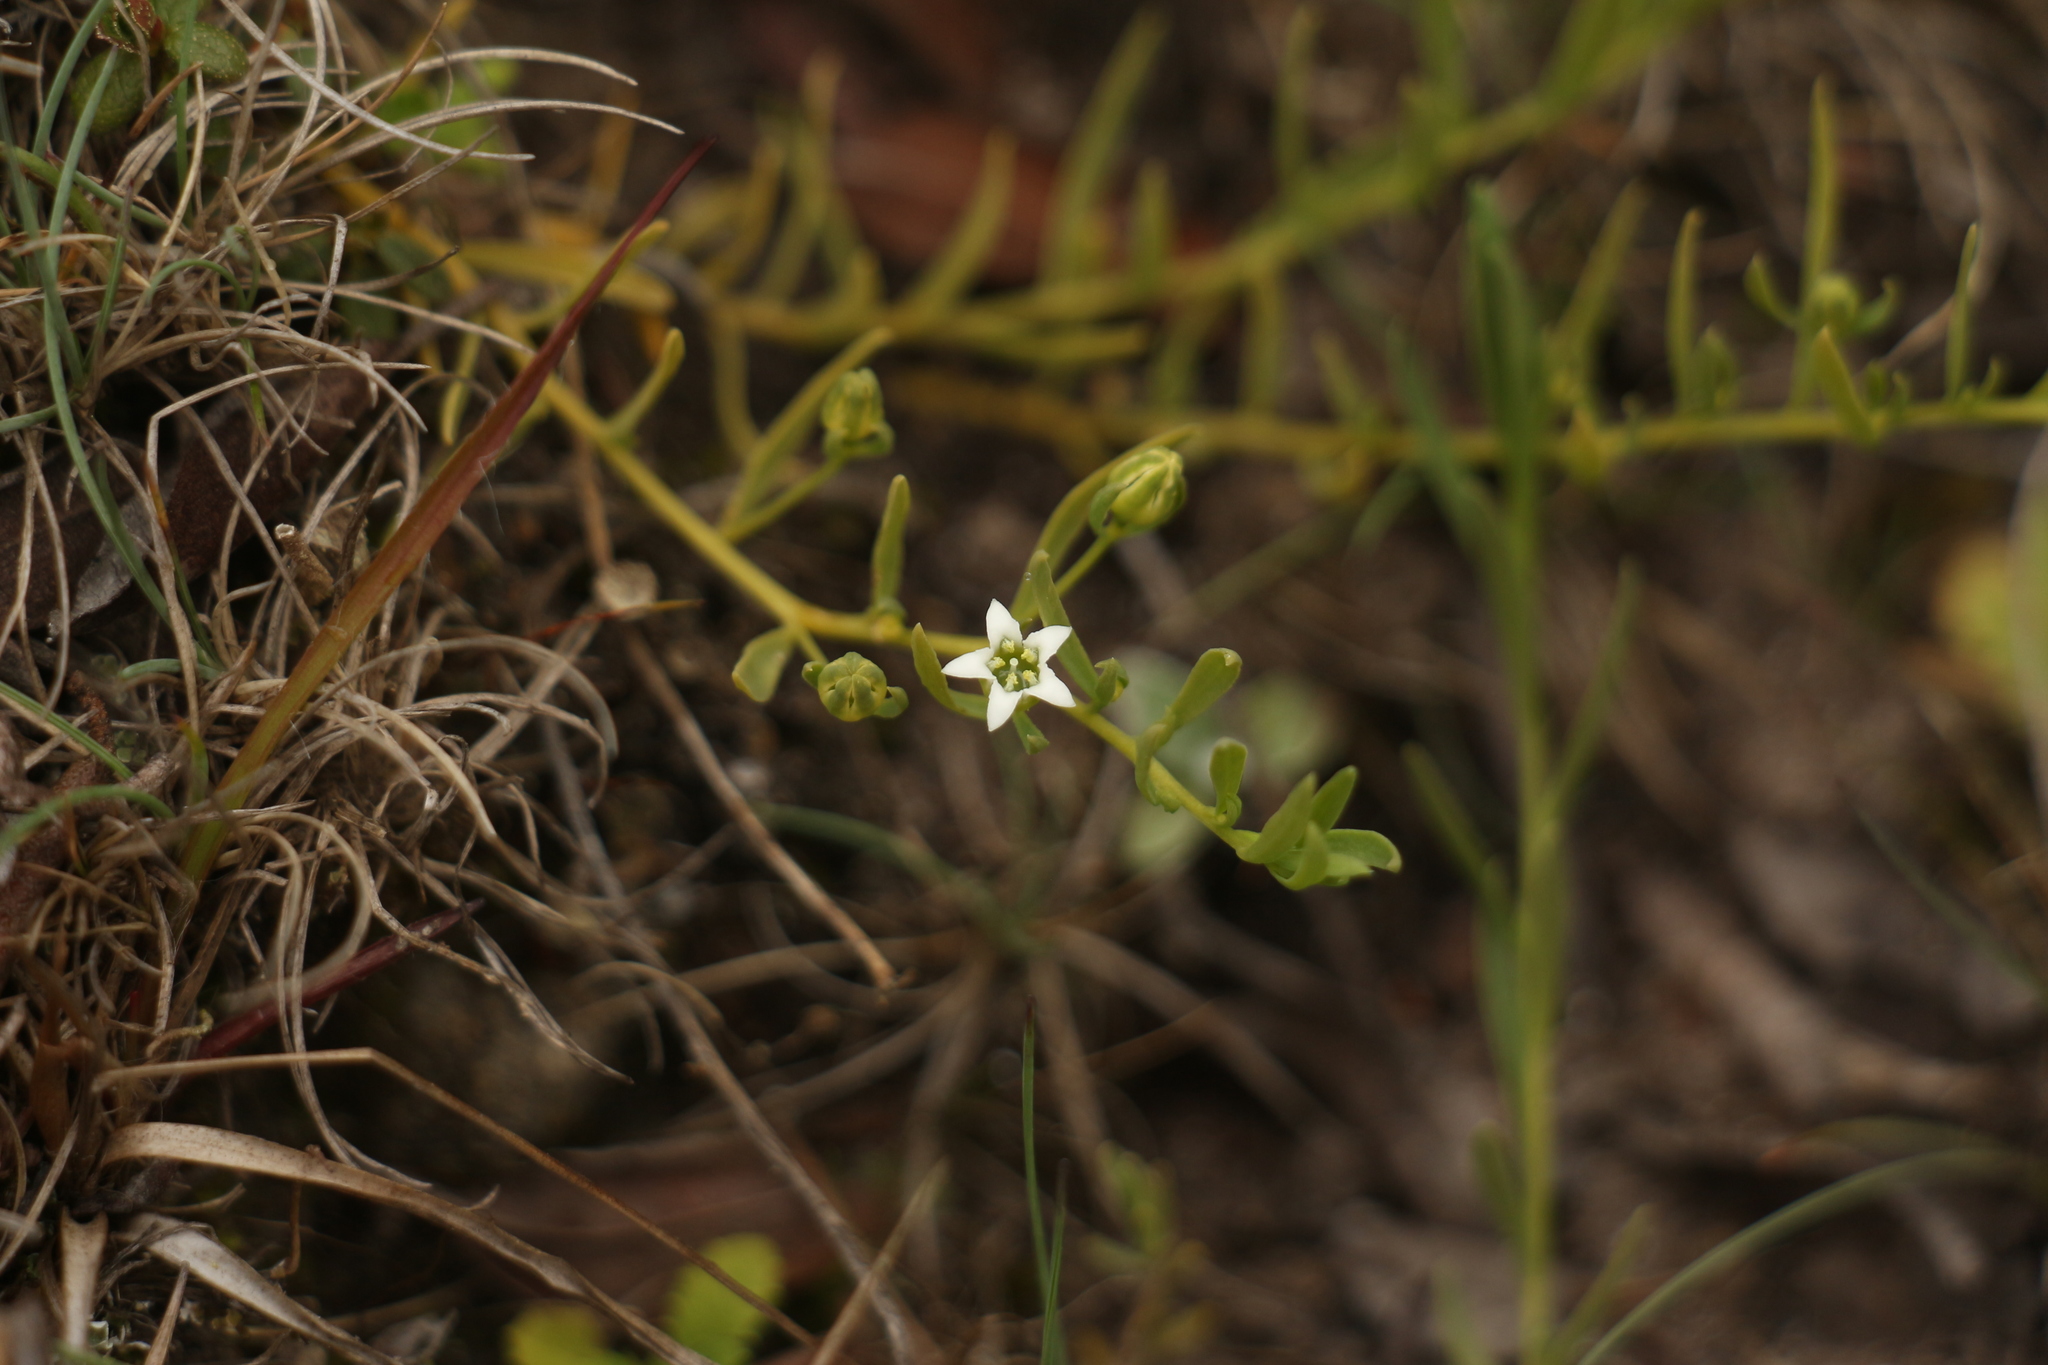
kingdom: Plantae
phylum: Tracheophyta
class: Magnoliopsida
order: Santalales
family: Thesiaceae
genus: Thesium
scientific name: Thesium himalense
